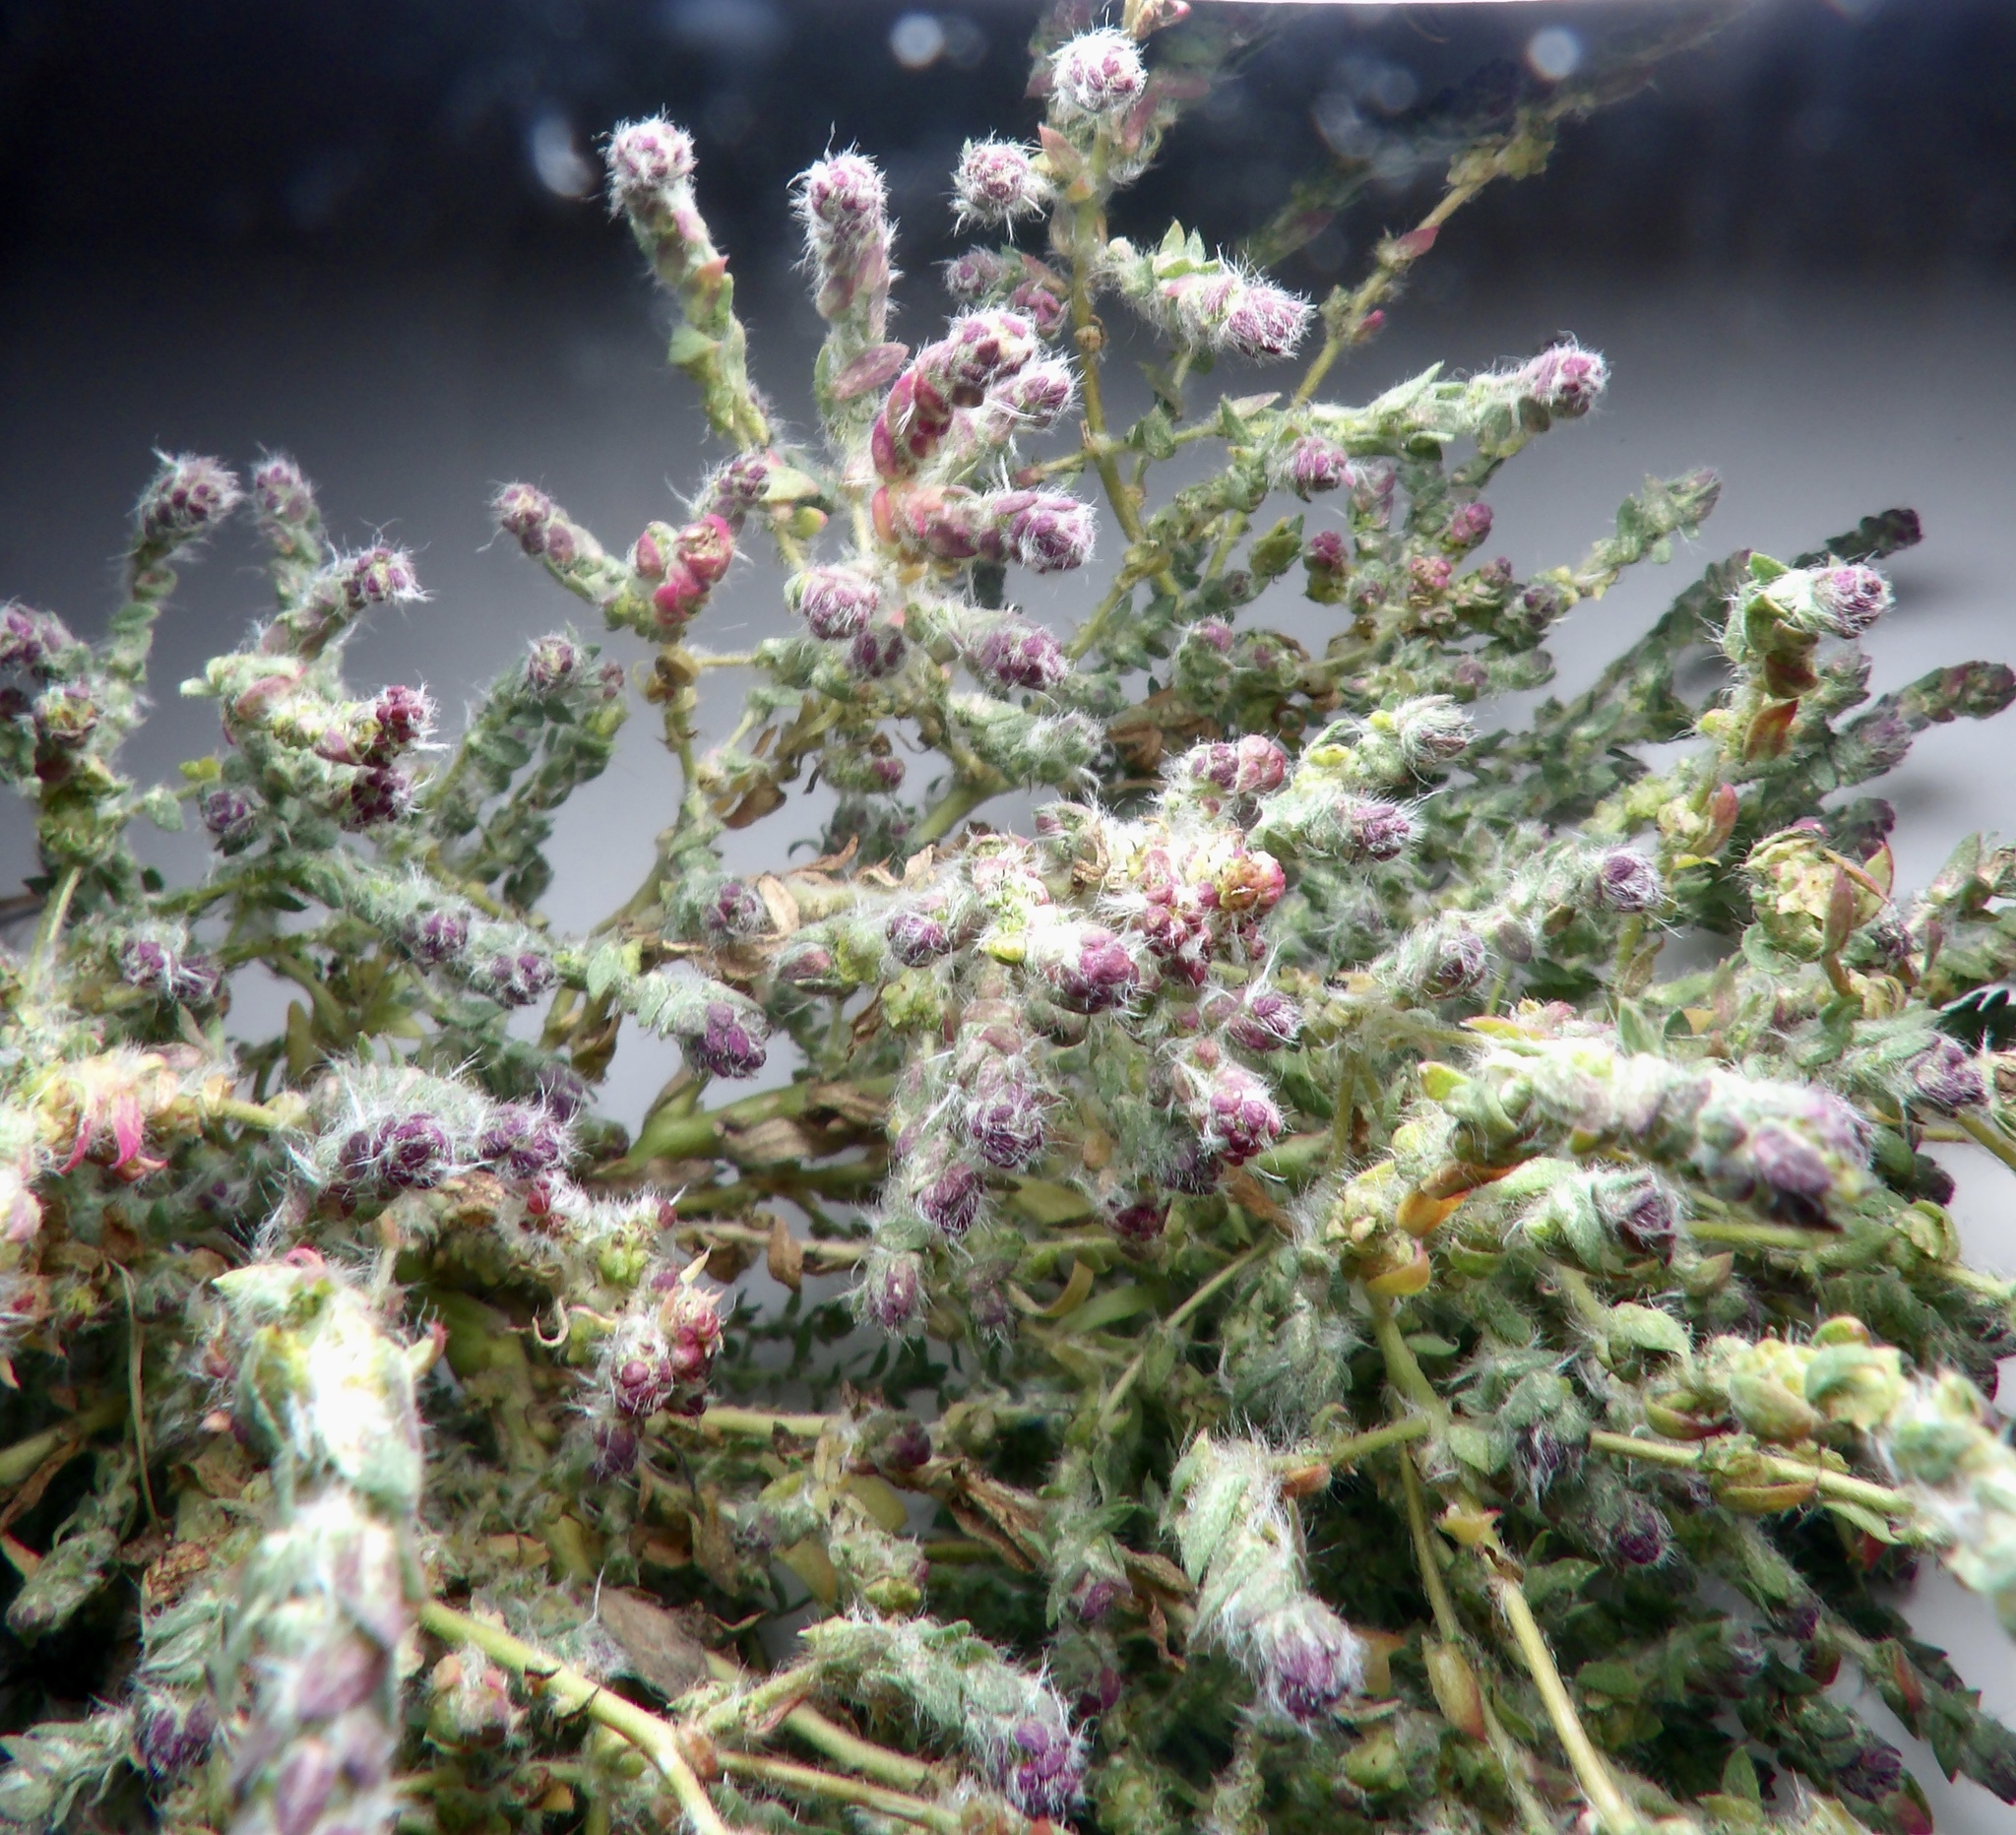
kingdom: Plantae
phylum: Tracheophyta
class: Magnoliopsida
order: Caryophyllales
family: Amaranthaceae
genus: Bassia
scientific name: Bassia hyssopifolia
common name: Fivehorn smotherweed
